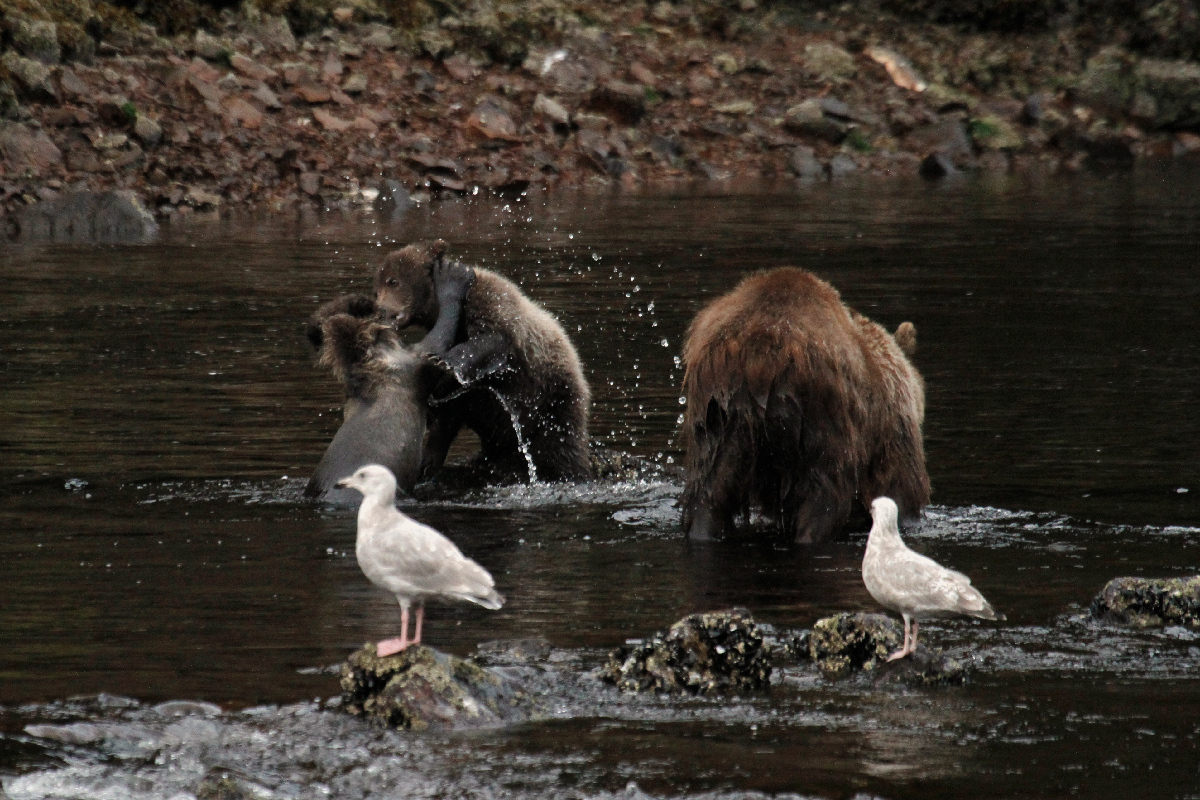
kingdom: Animalia
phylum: Chordata
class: Mammalia
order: Carnivora
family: Ursidae
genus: Ursus
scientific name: Ursus arctos
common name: Brown bear
